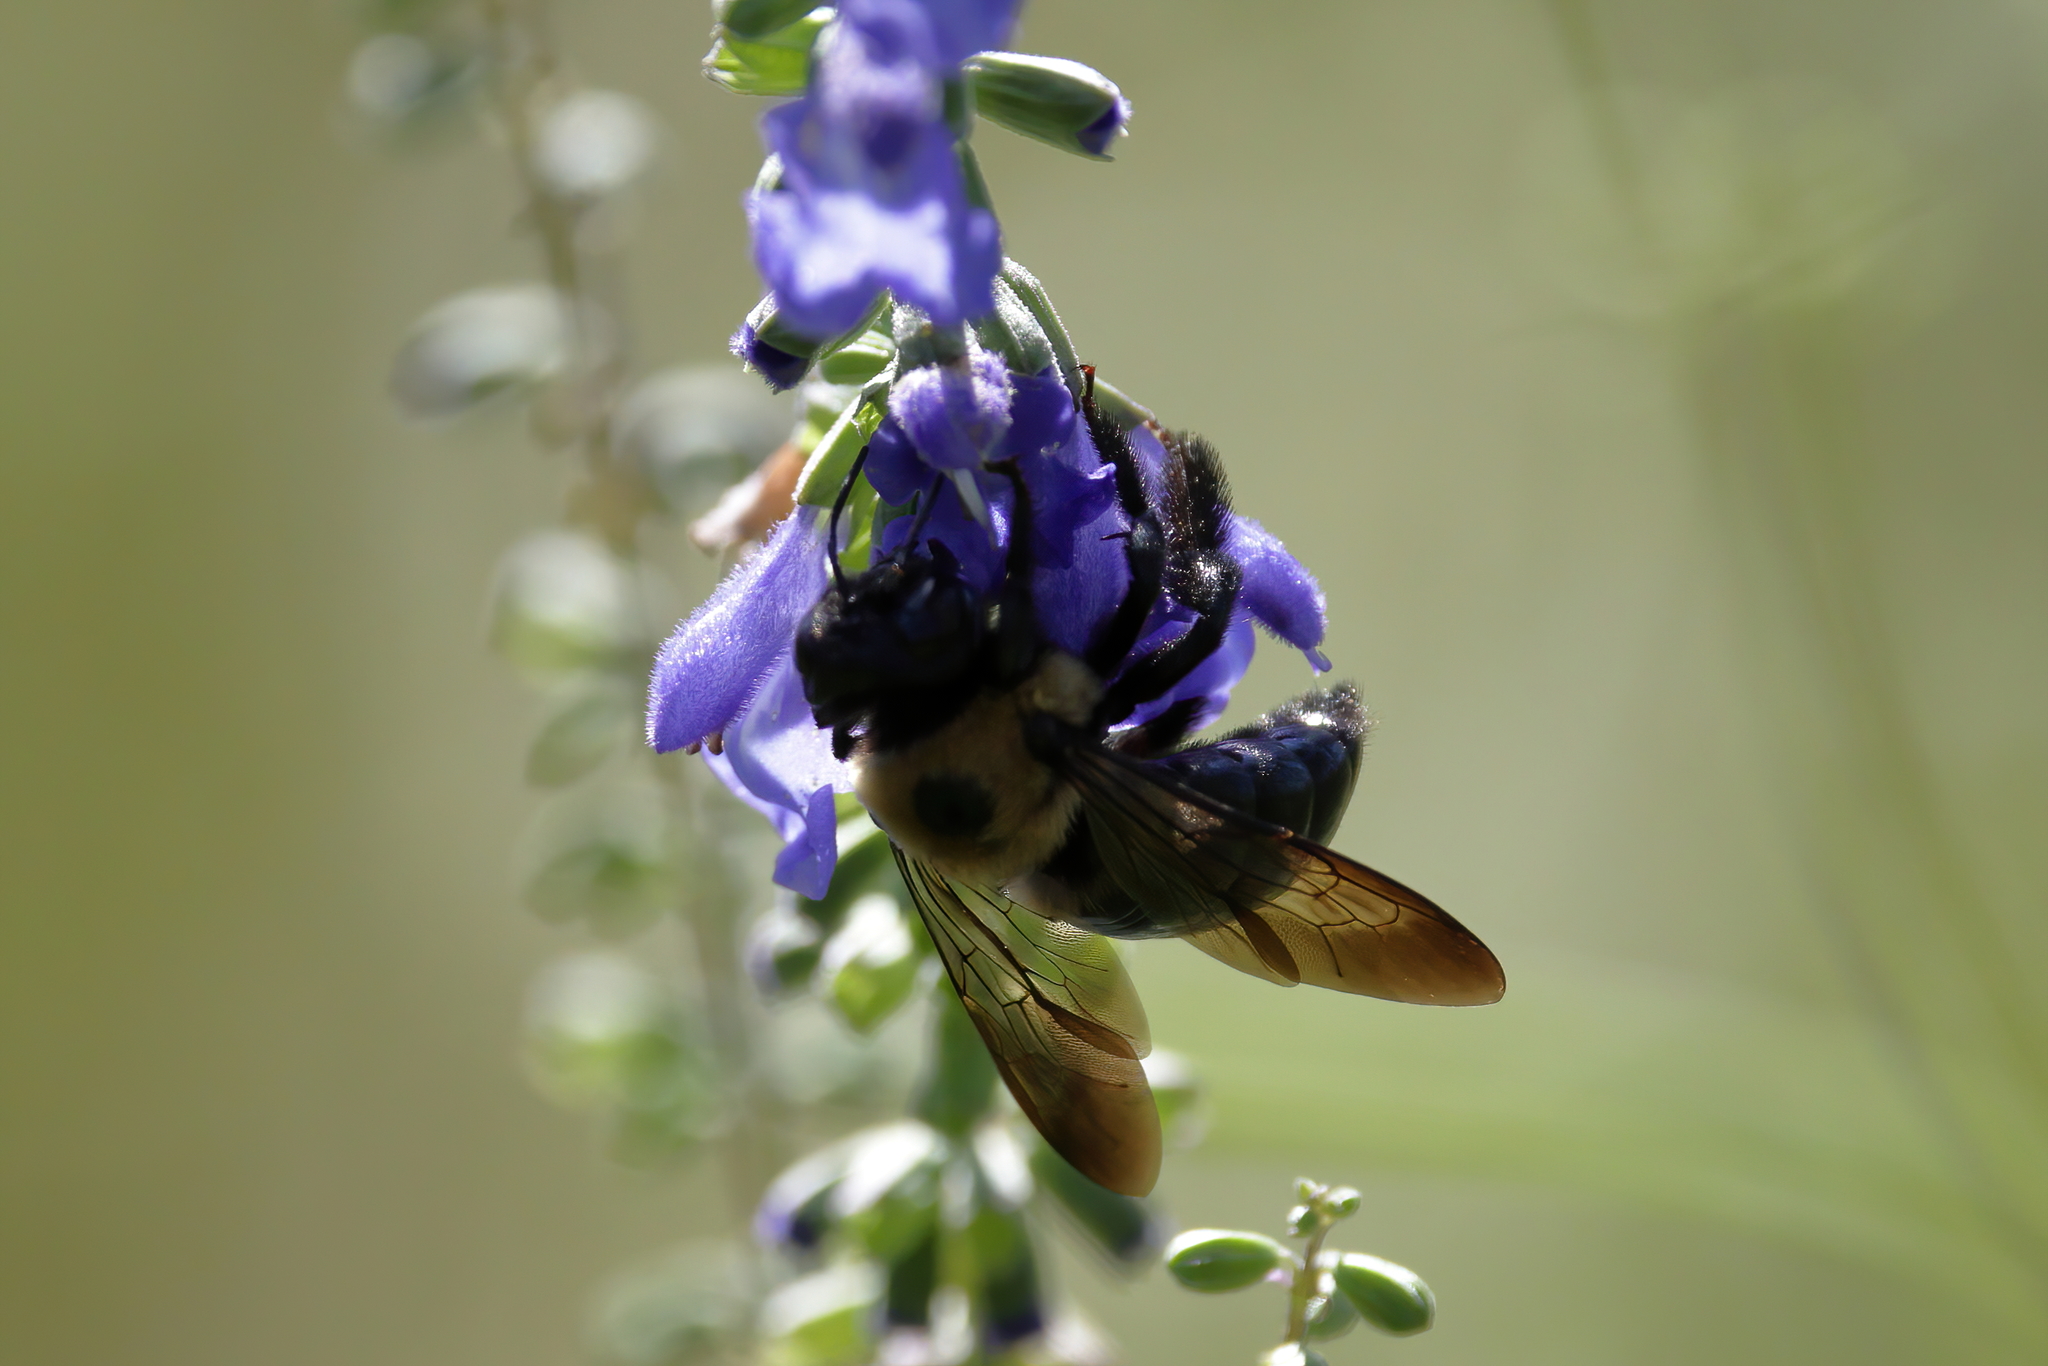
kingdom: Animalia
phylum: Arthropoda
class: Insecta
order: Hymenoptera
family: Apidae
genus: Xylocopa
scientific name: Xylocopa virginica
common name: Carpenter bee
